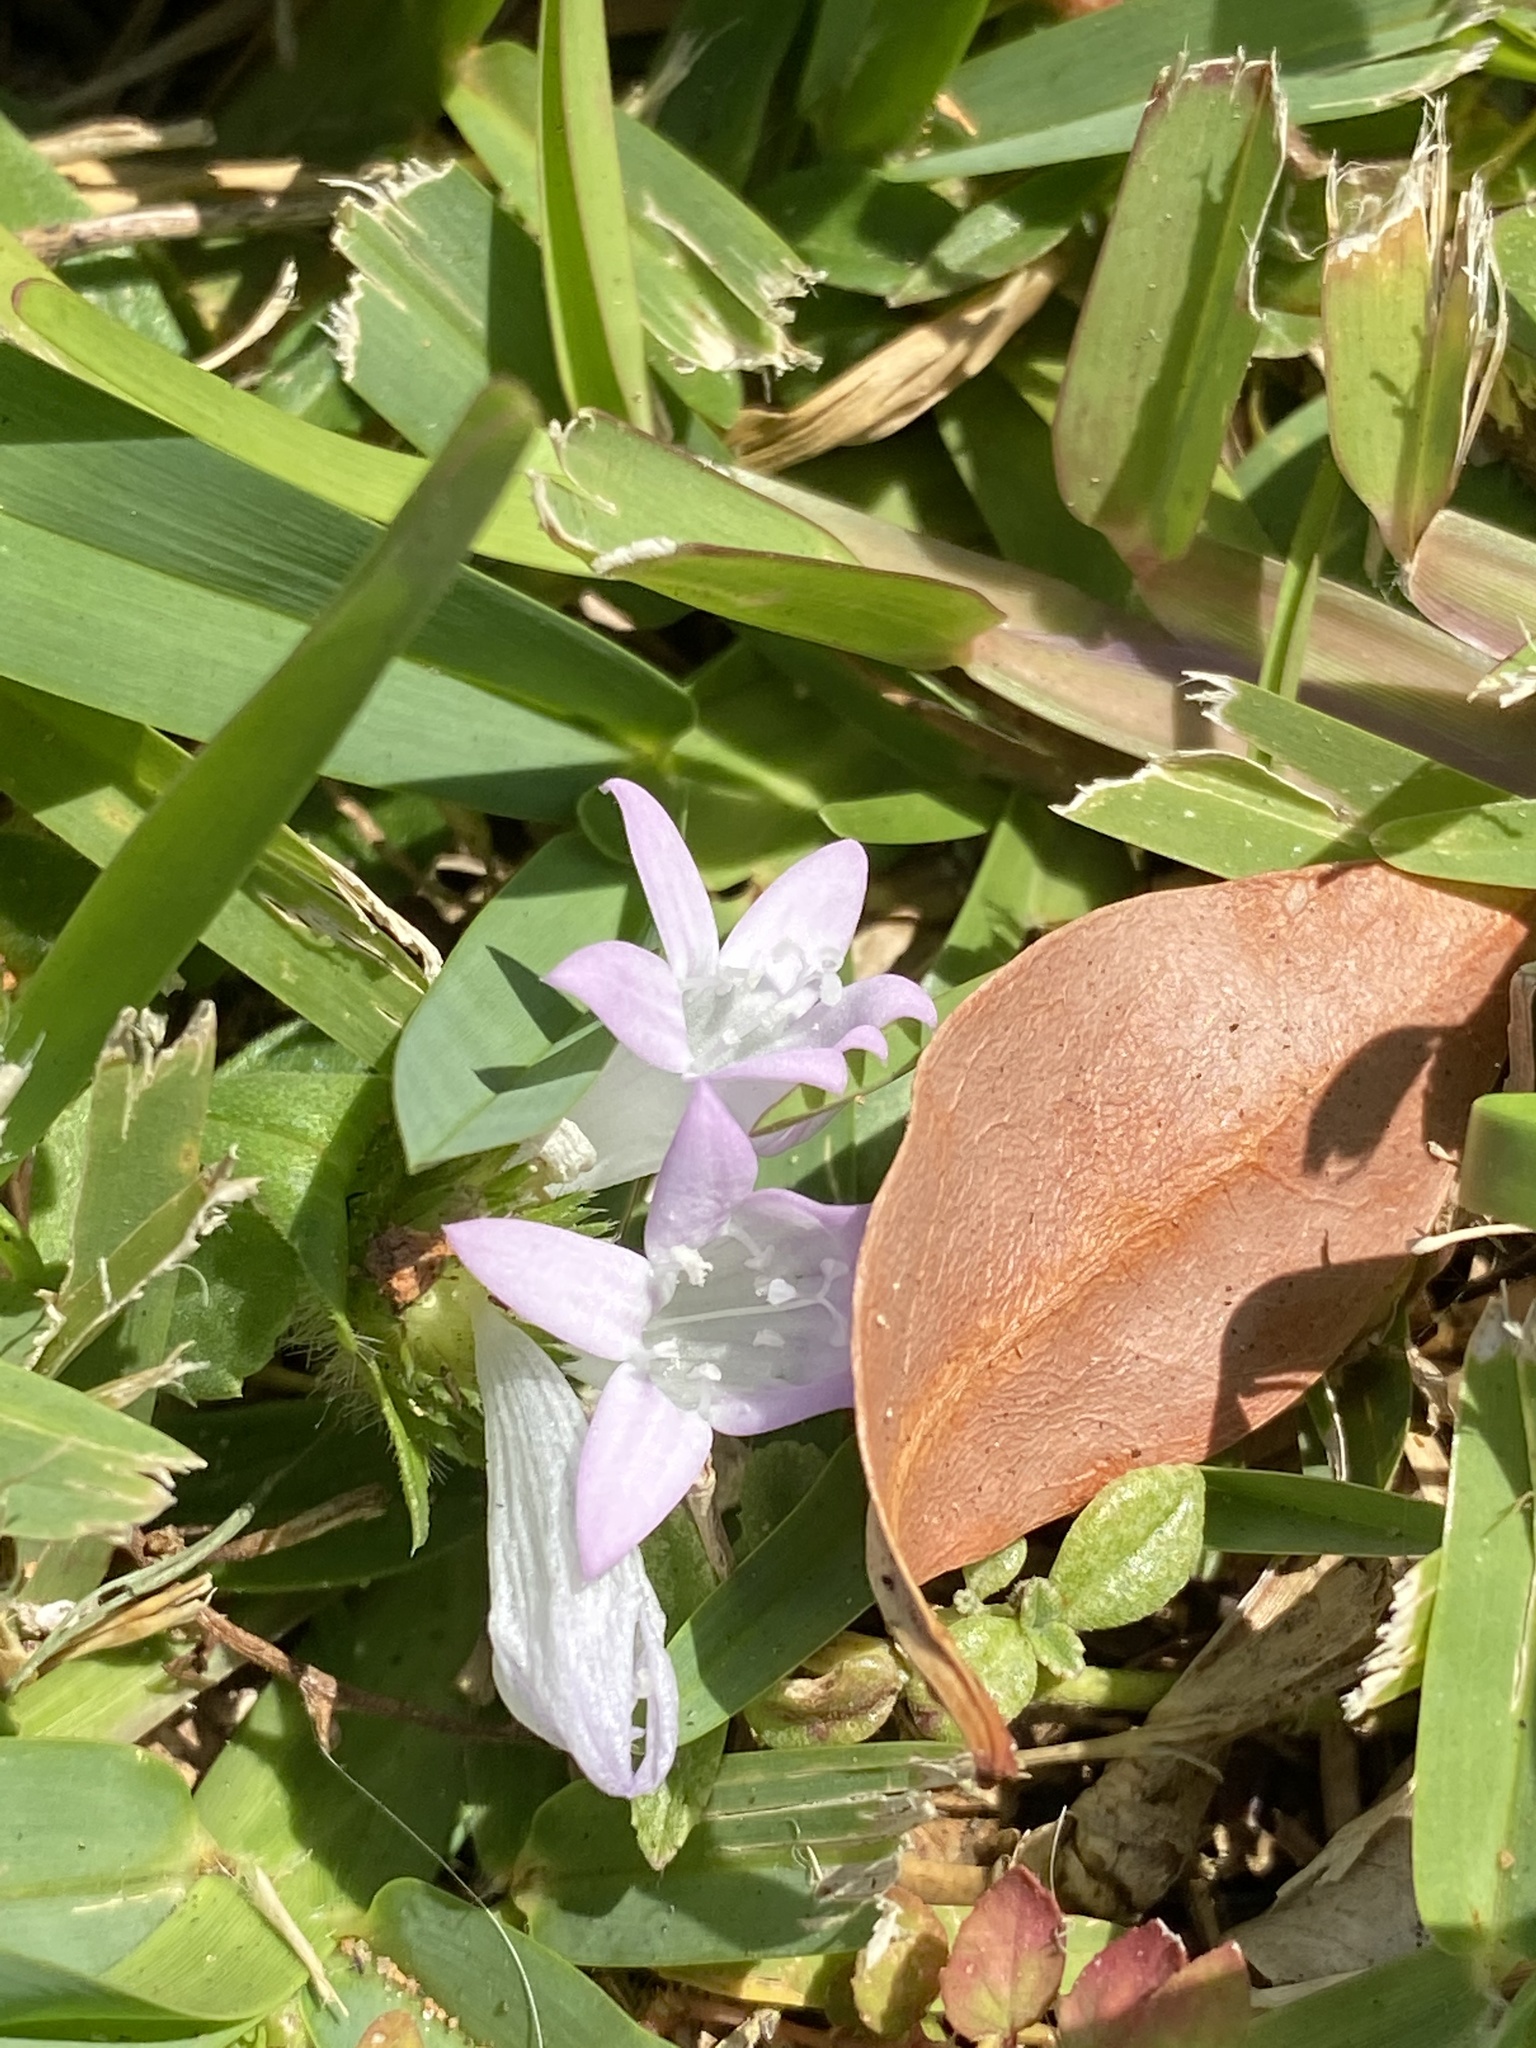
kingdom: Plantae
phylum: Tracheophyta
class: Magnoliopsida
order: Gentianales
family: Rubiaceae
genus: Richardia
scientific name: Richardia grandiflora
